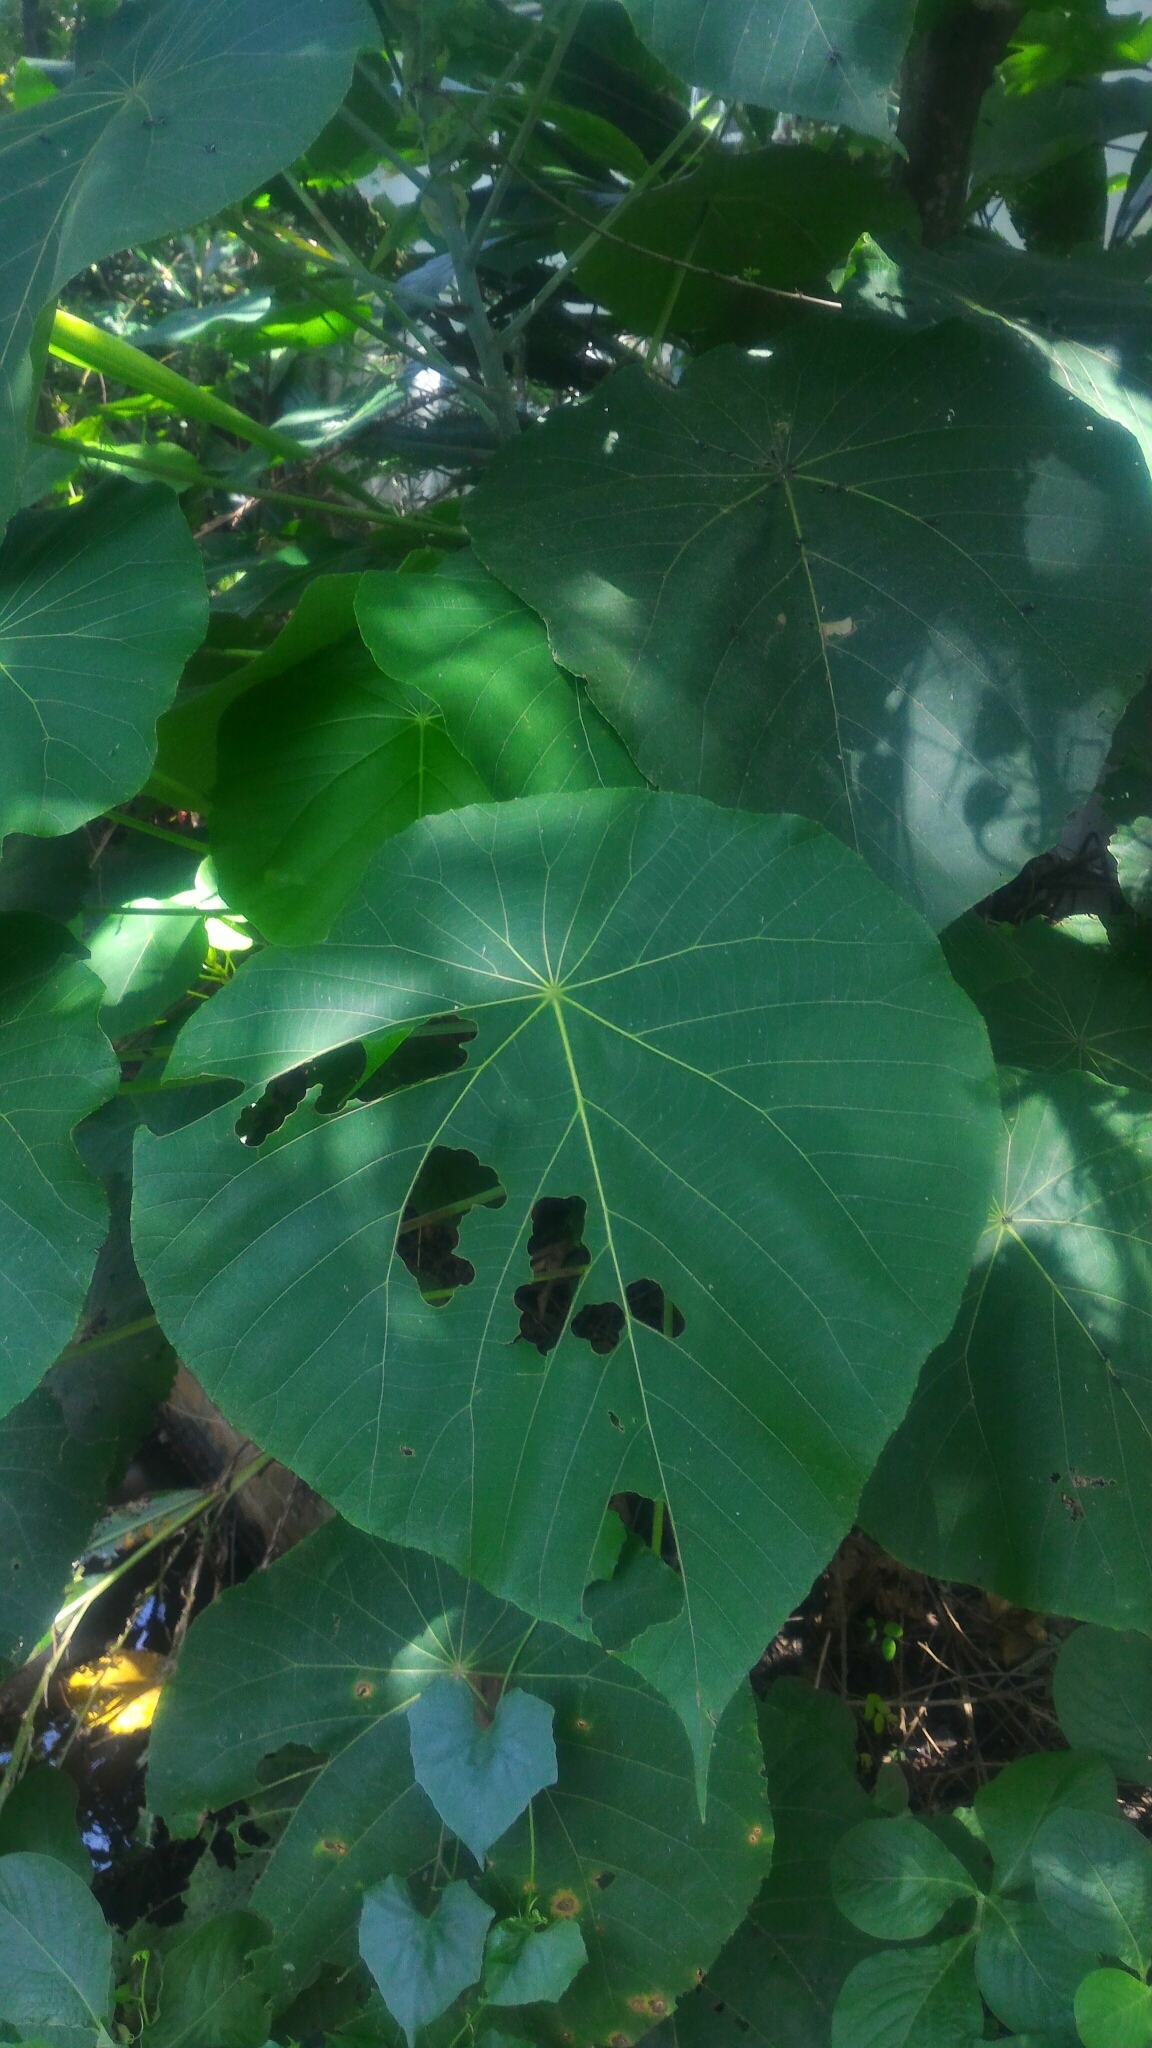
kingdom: Plantae
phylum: Tracheophyta
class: Magnoliopsida
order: Malpighiales
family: Euphorbiaceae
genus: Macaranga
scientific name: Macaranga tanarius
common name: Parasol leaf tree
